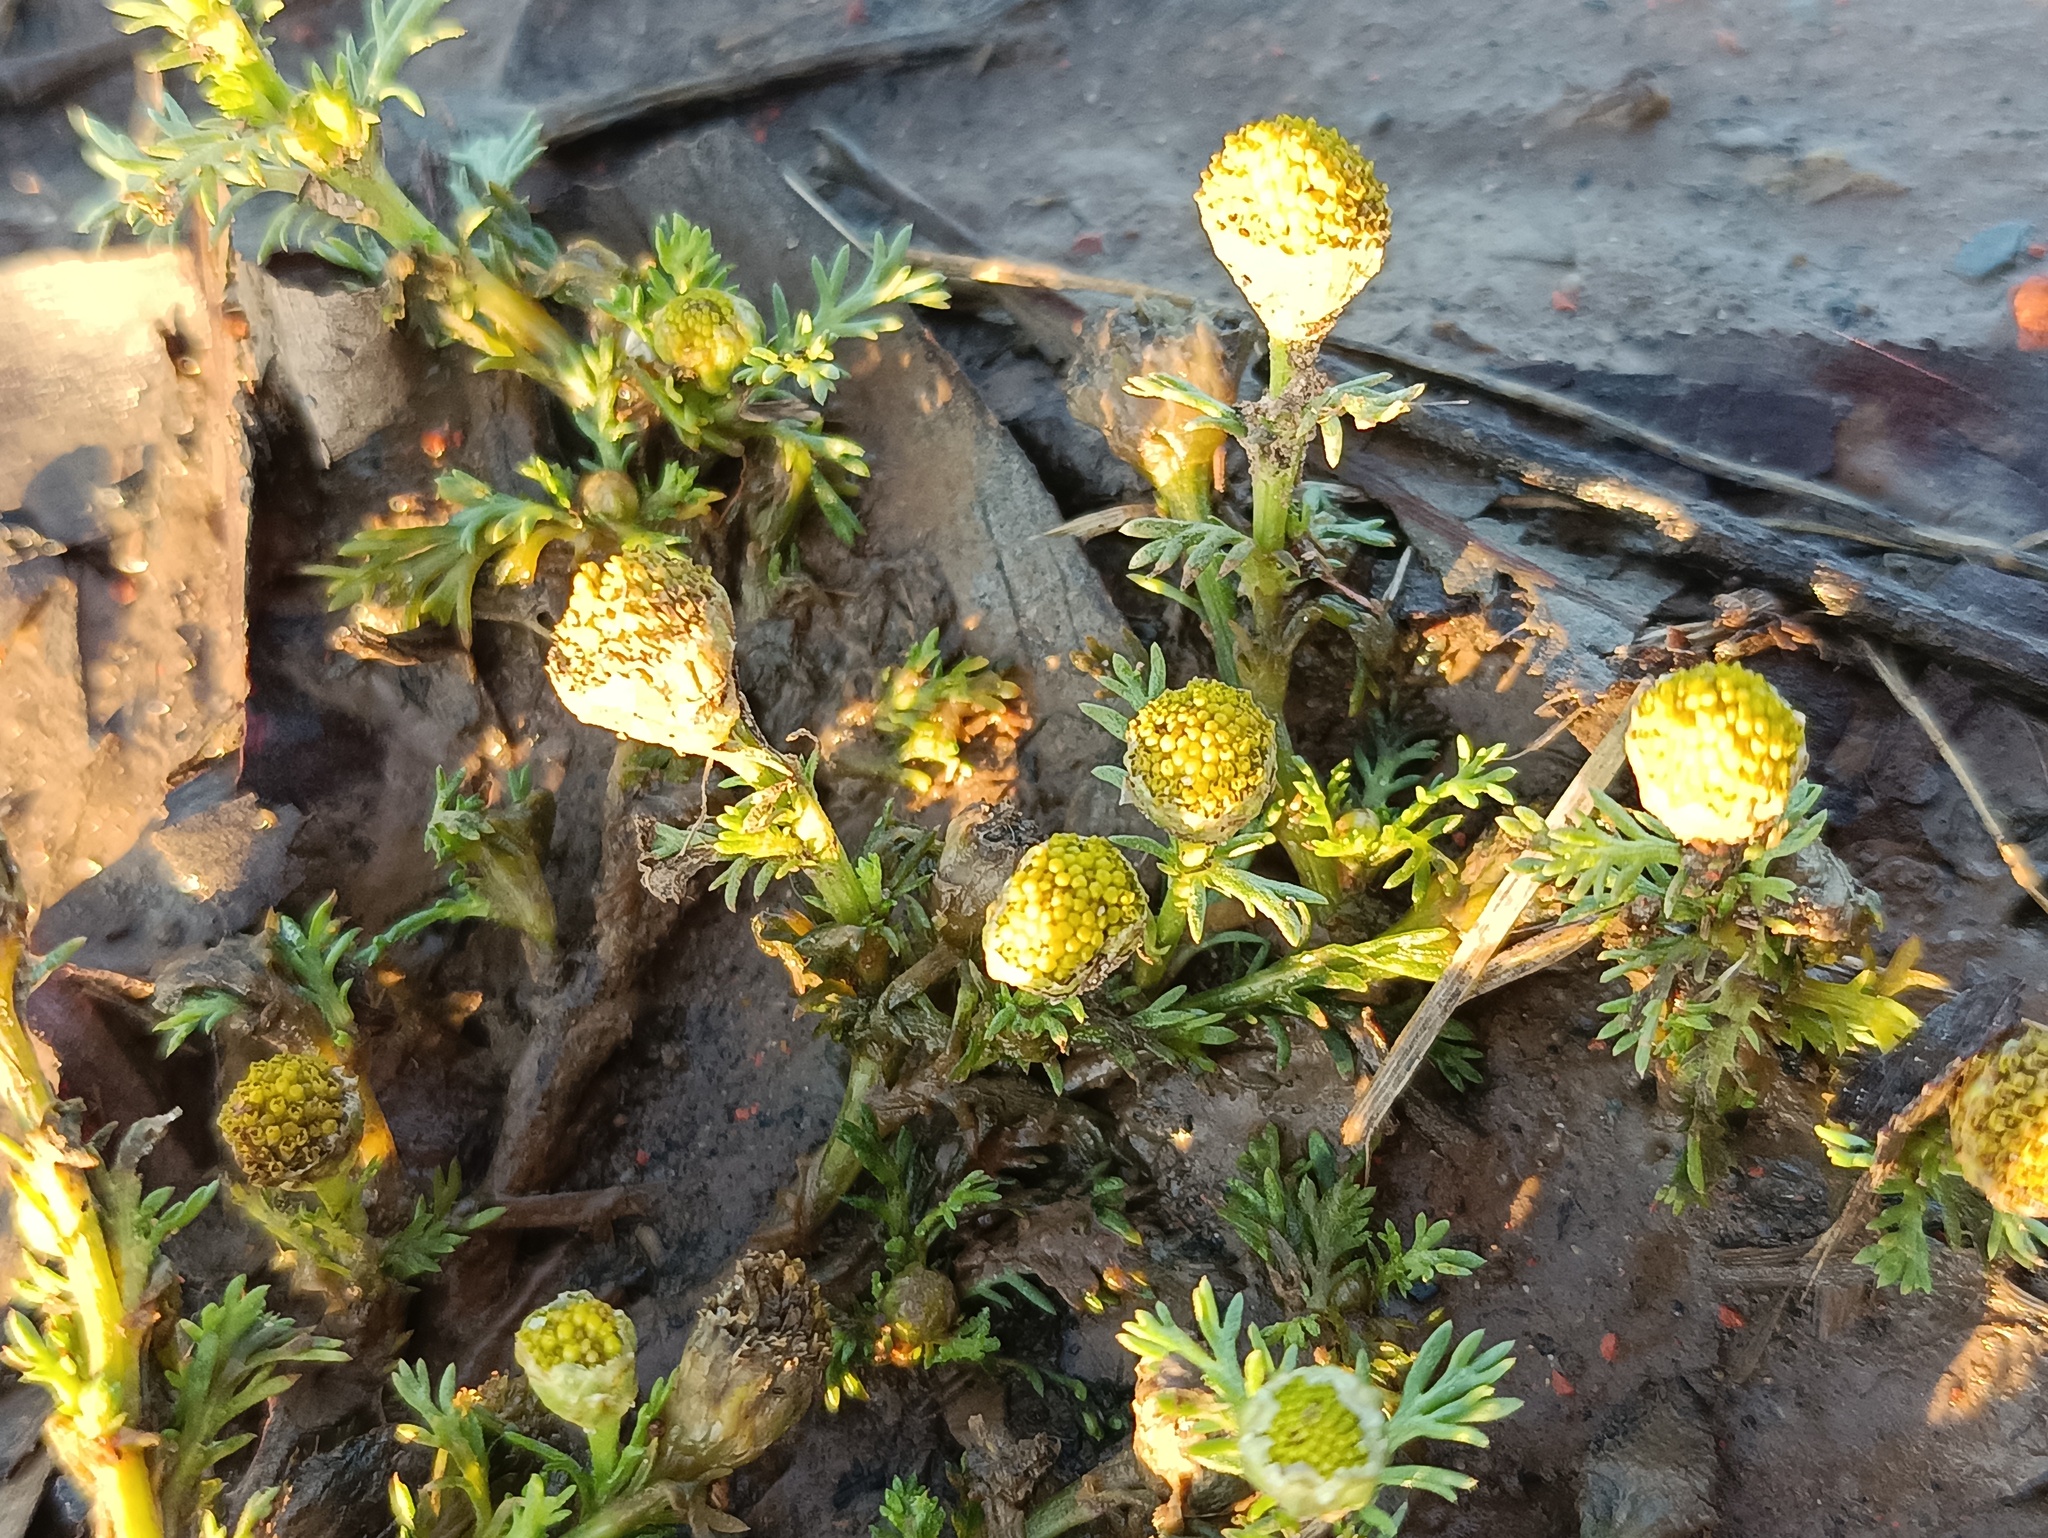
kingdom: Plantae
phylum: Tracheophyta
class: Magnoliopsida
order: Asterales
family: Asteraceae
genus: Matricaria
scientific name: Matricaria discoidea
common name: Disc mayweed
